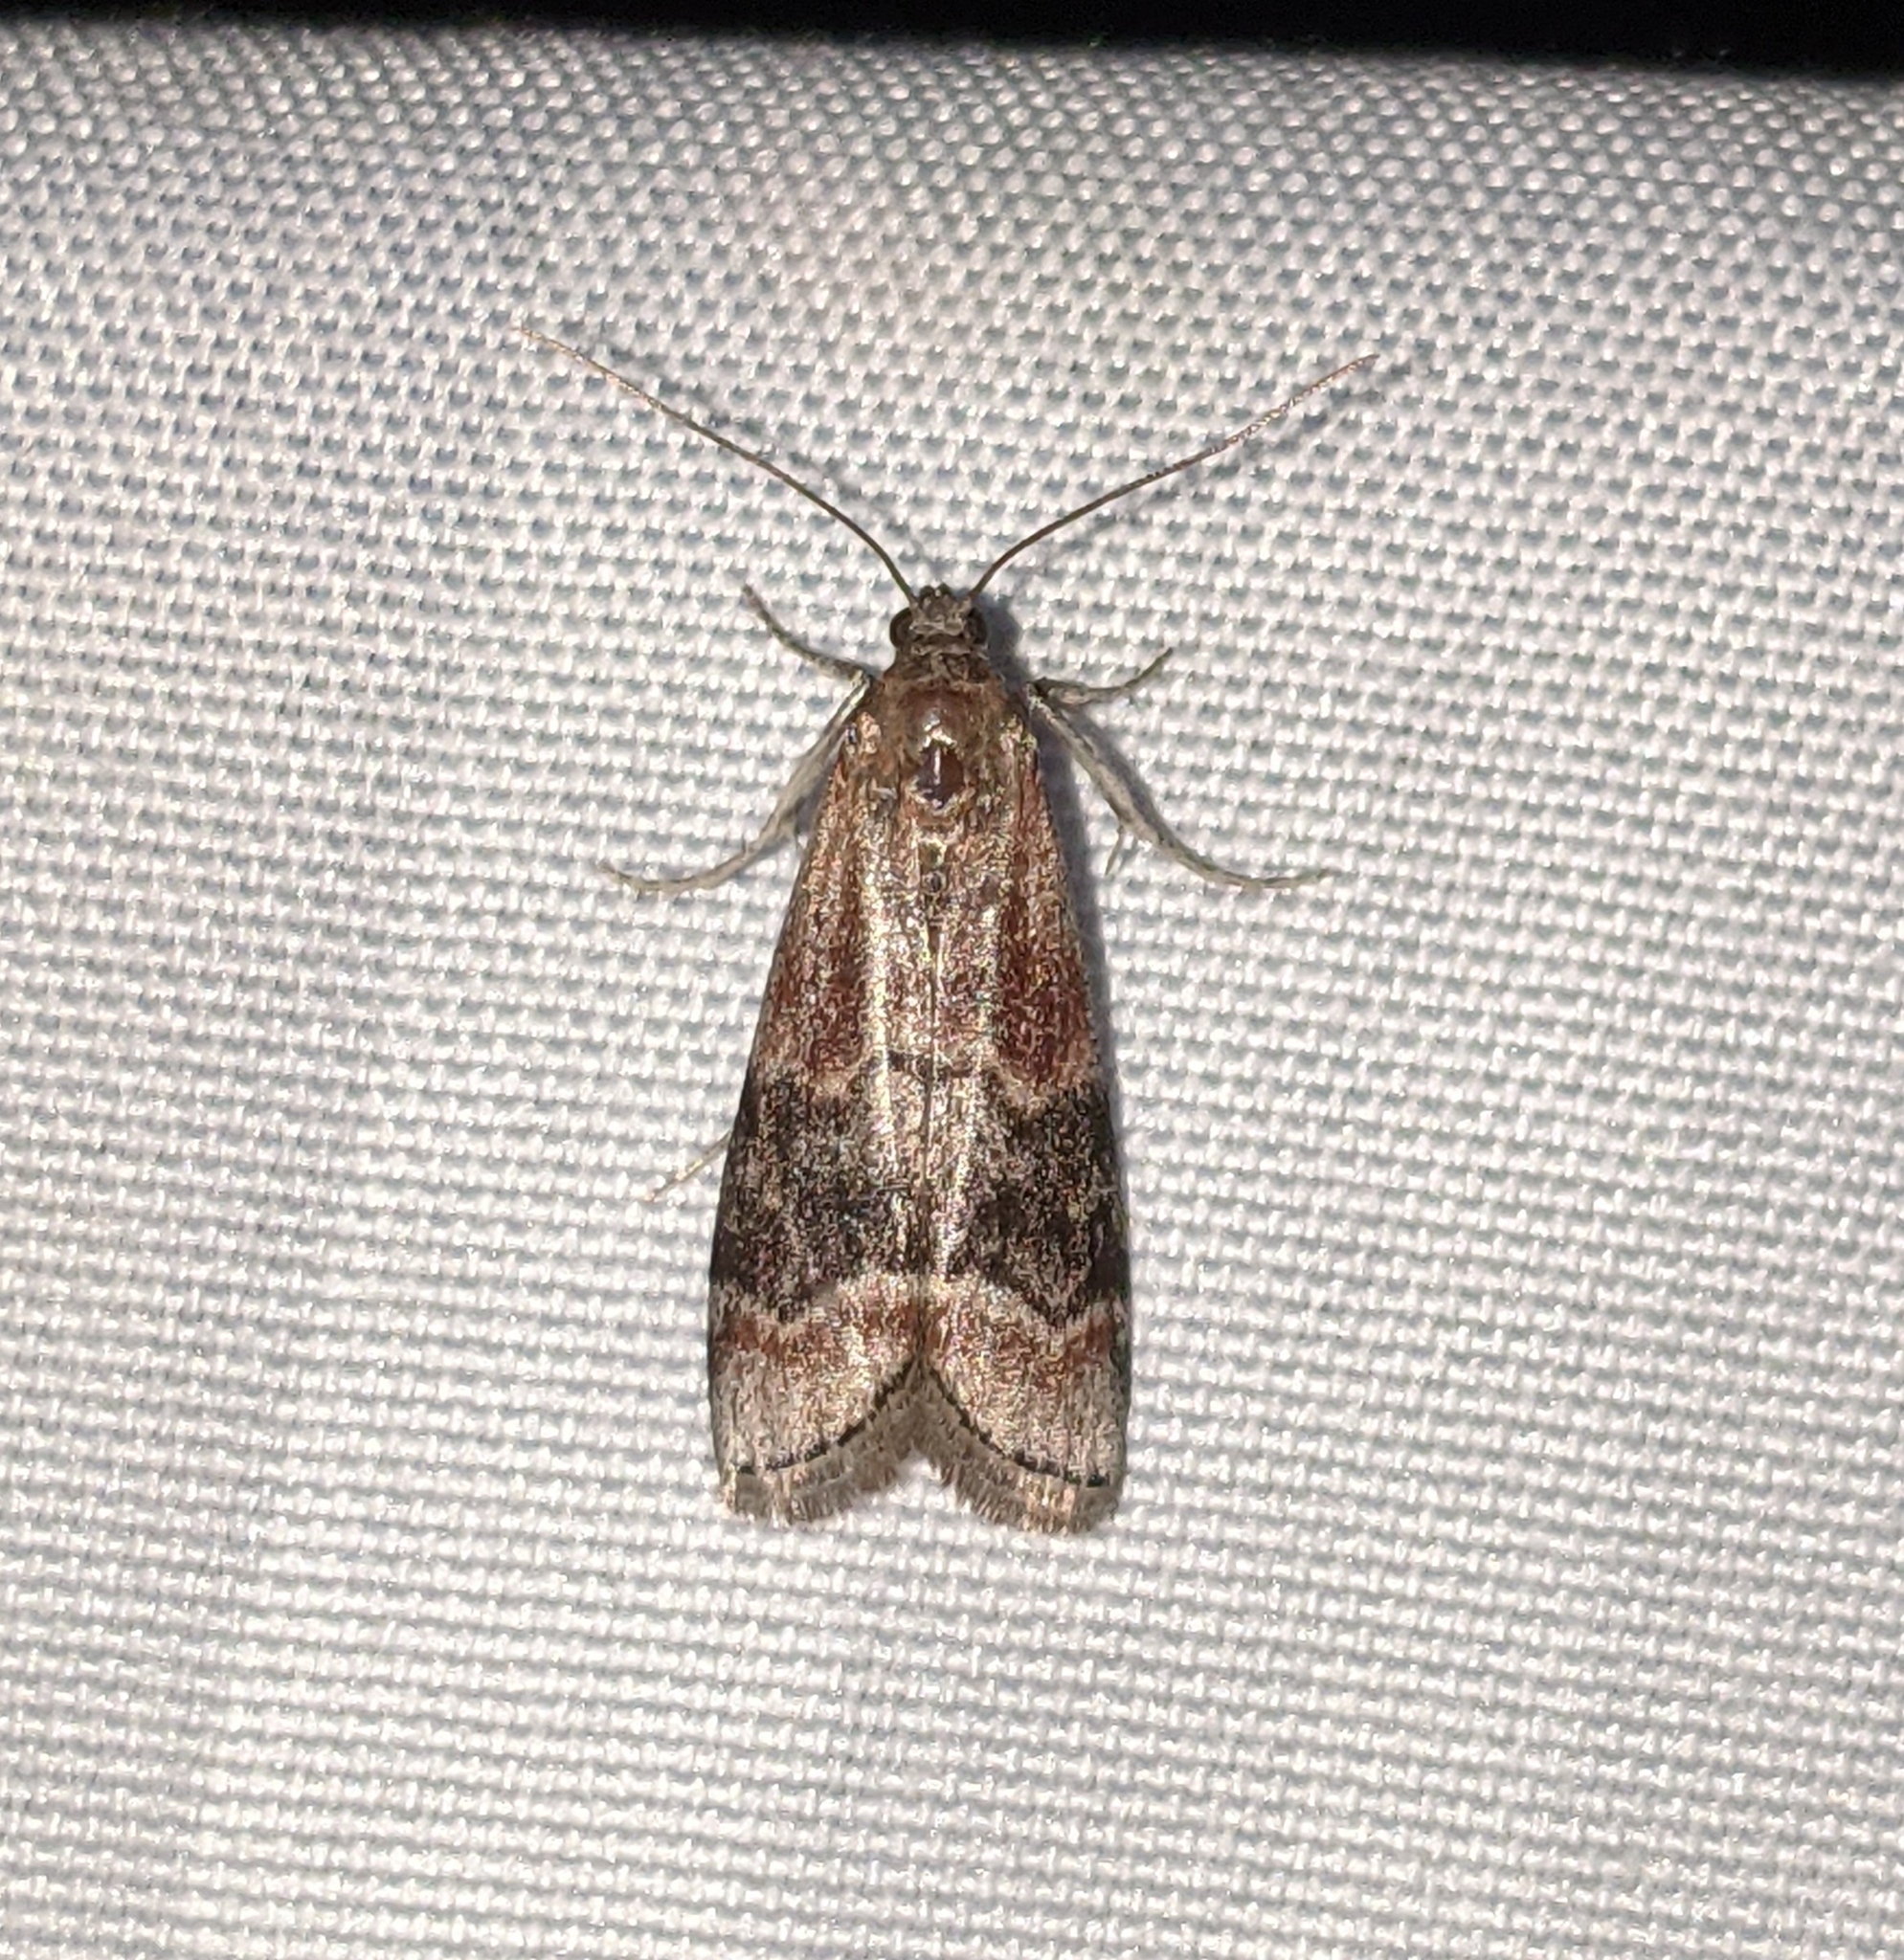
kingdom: Animalia
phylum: Arthropoda
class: Insecta
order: Lepidoptera
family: Pyralidae
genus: Euzophera
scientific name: Euzophera semifuneralis
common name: American plum borer moth
